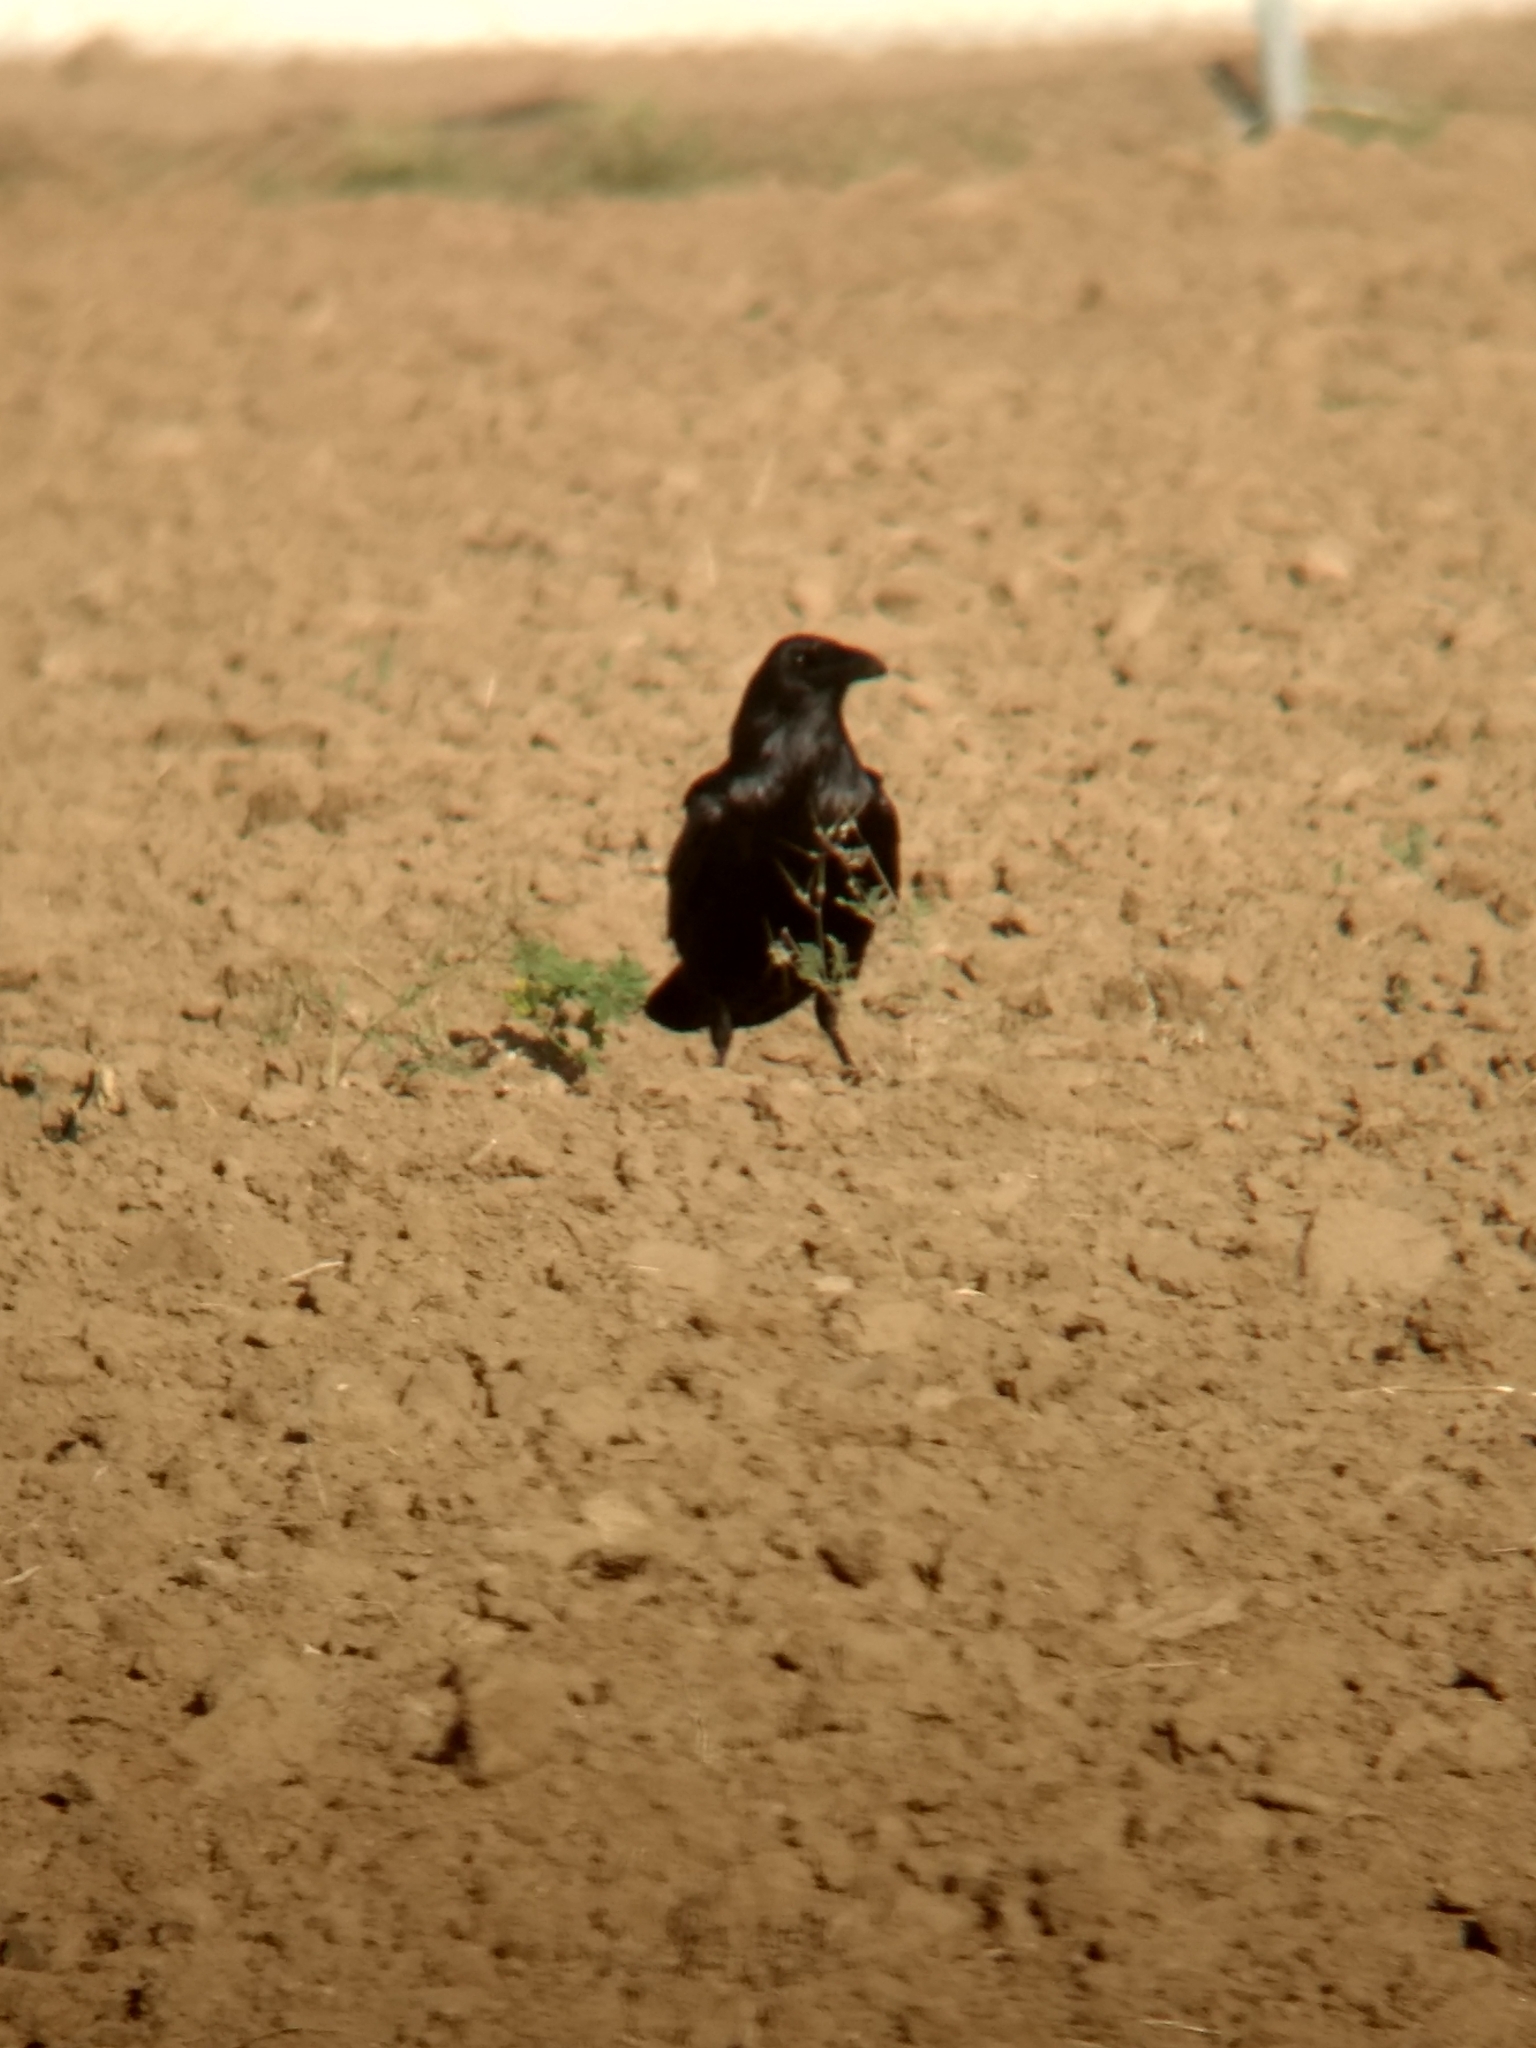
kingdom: Animalia
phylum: Chordata
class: Aves
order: Passeriformes
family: Corvidae
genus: Corvus
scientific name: Corvus corax
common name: Common raven
